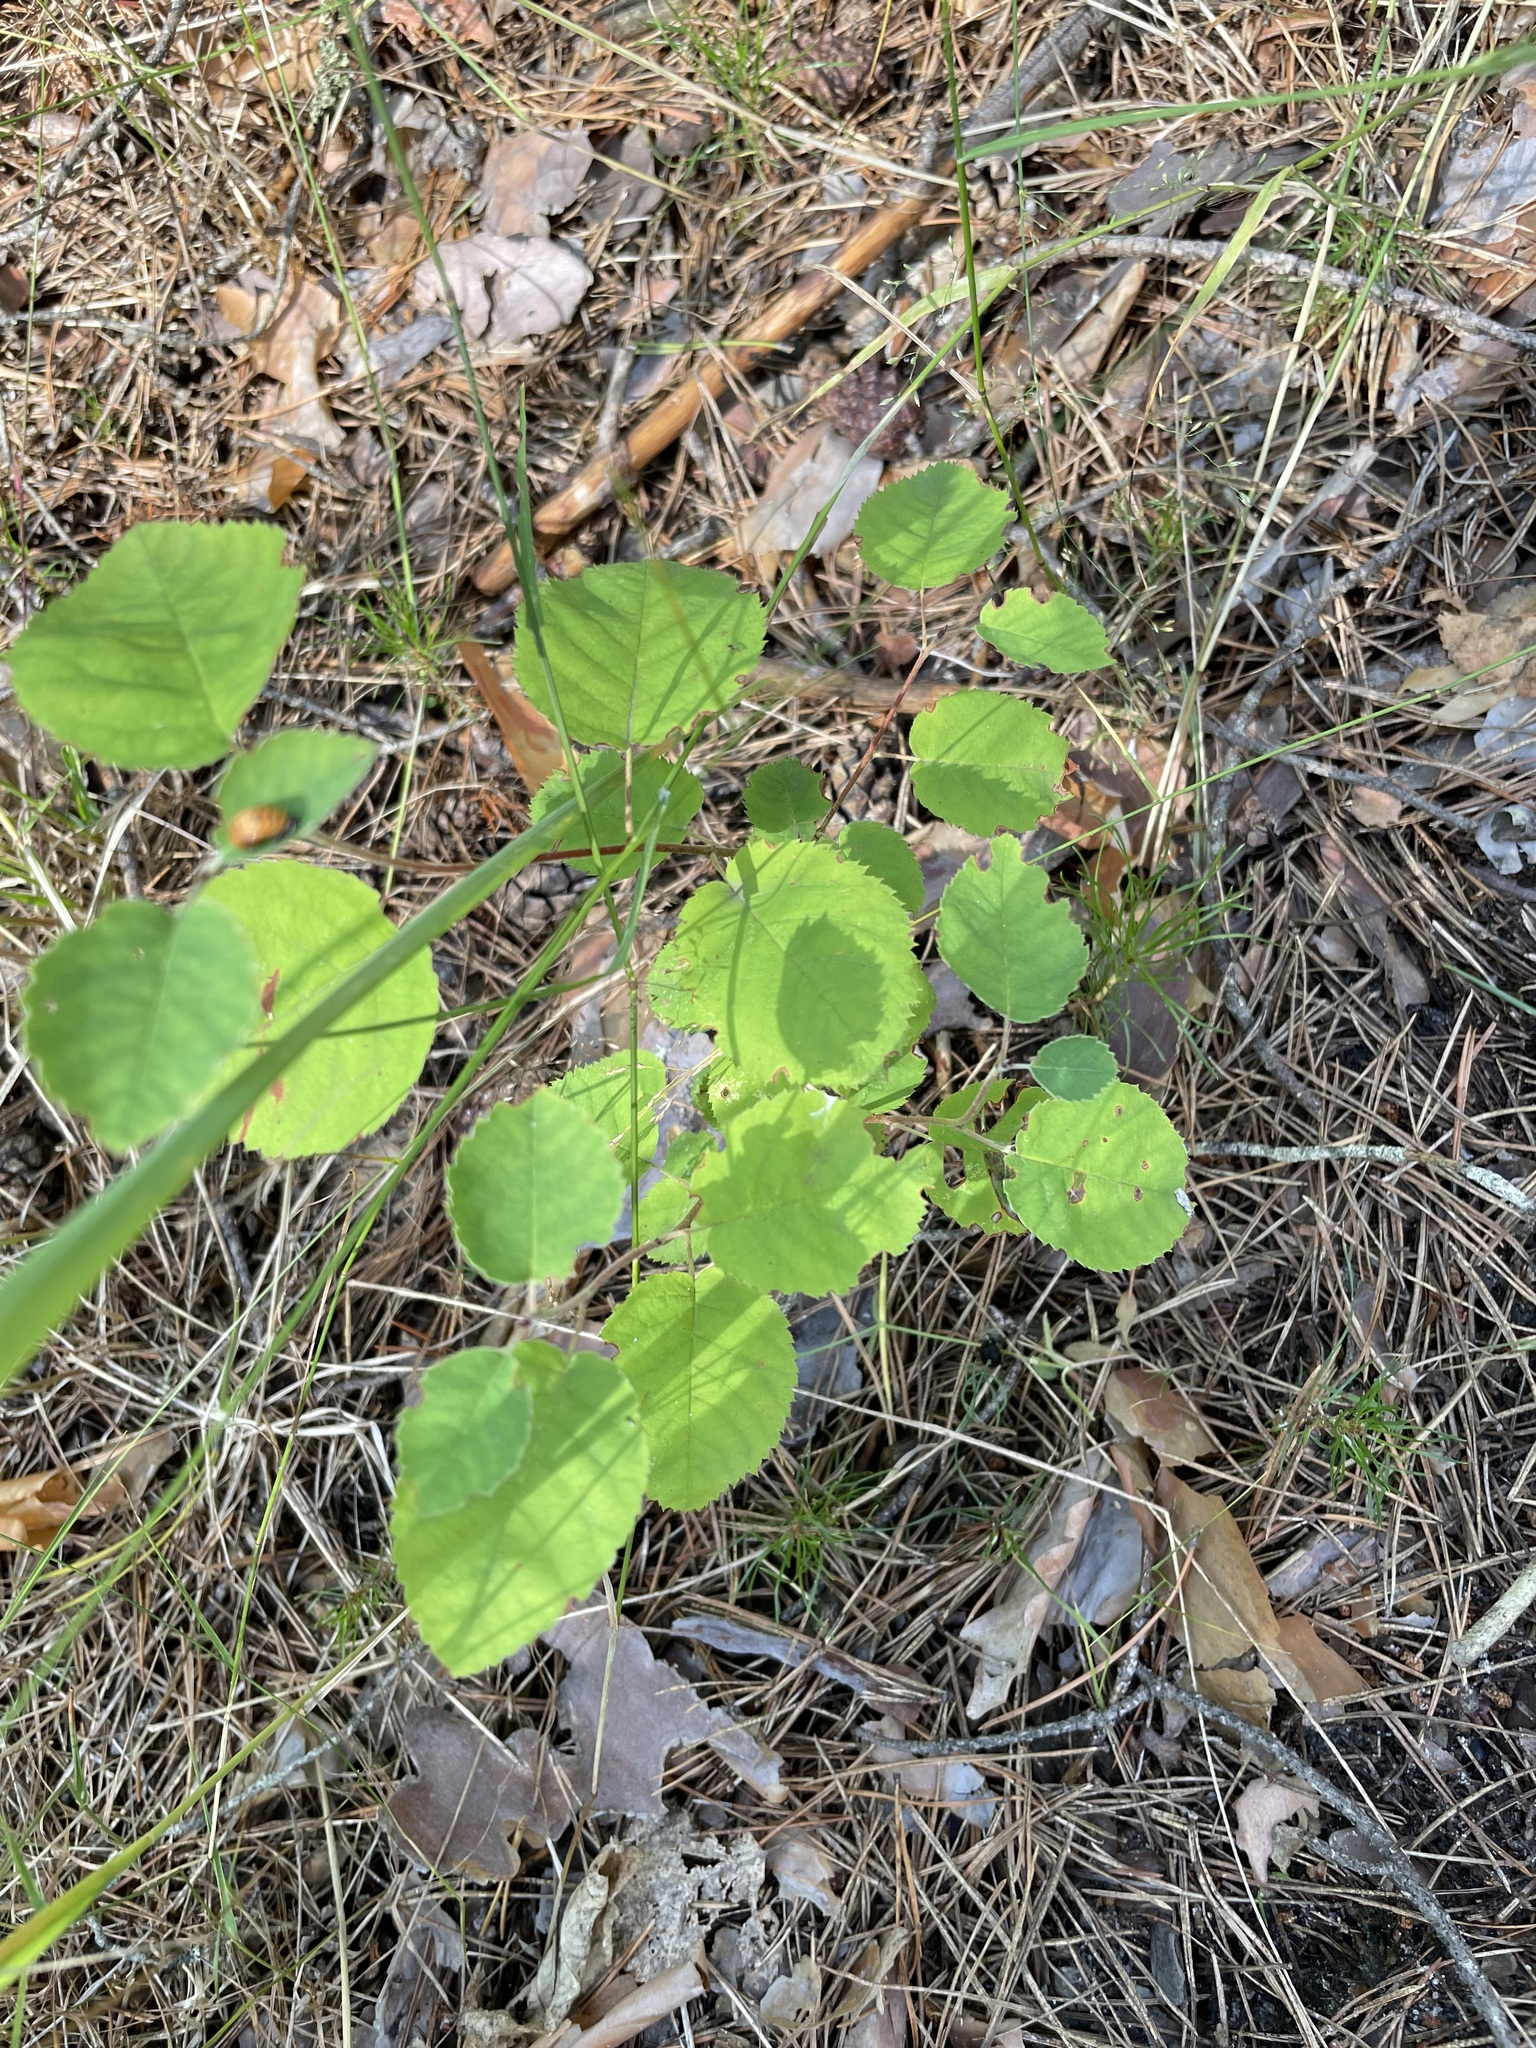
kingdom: Plantae
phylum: Tracheophyta
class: Magnoliopsida
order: Rosales
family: Rosaceae
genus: Amelanchier
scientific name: Amelanchier
